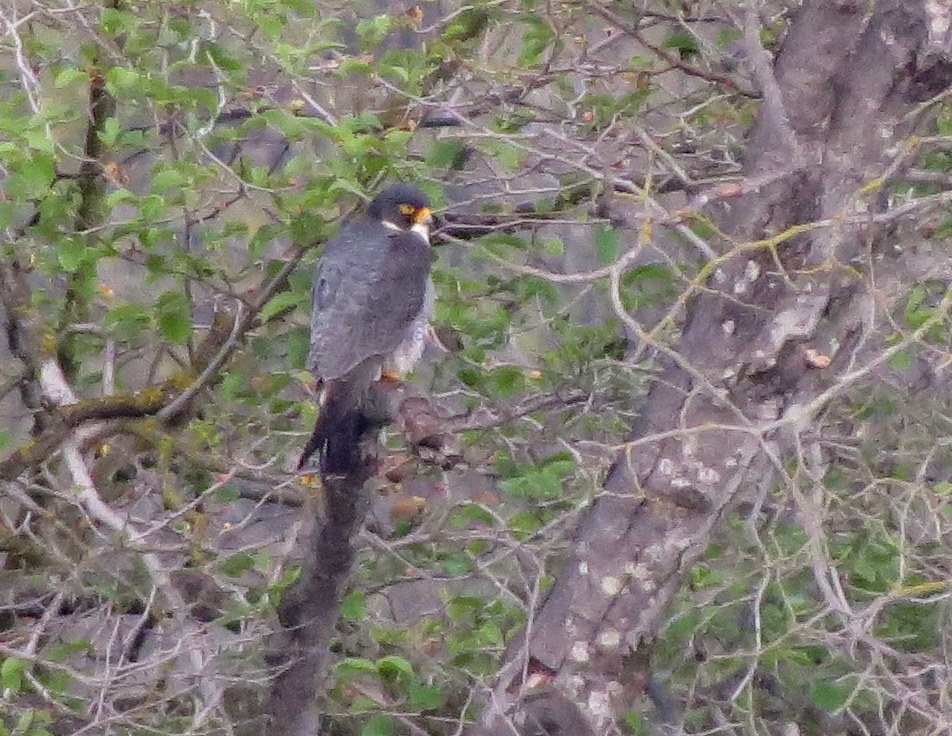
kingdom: Animalia
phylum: Chordata
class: Aves
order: Falconiformes
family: Falconidae
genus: Falco
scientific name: Falco peregrinus
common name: Peregrine falcon
